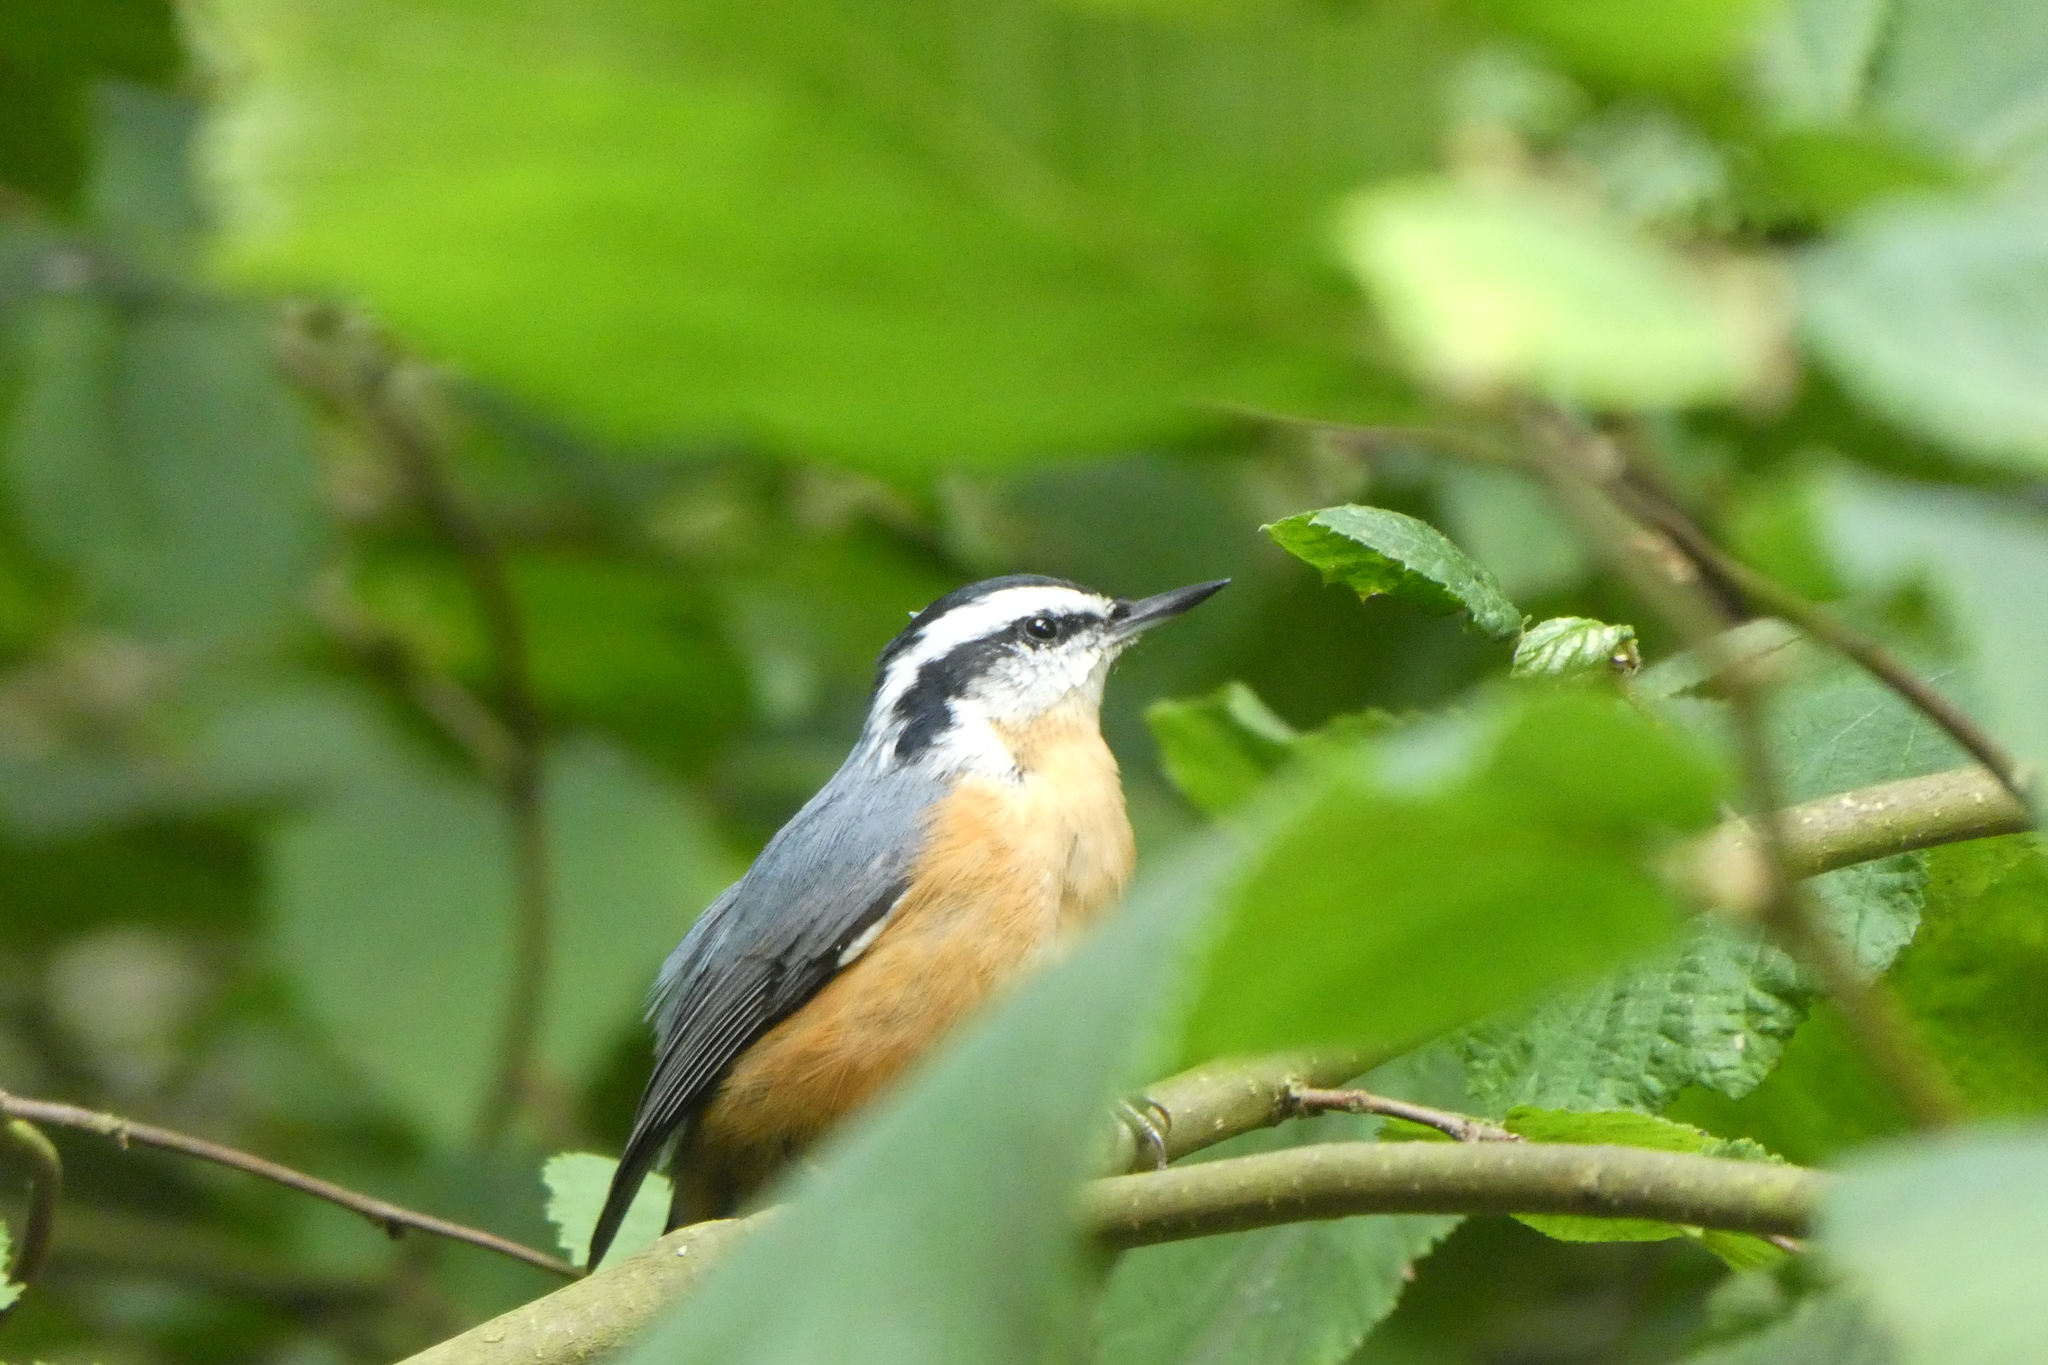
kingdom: Animalia
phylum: Chordata
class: Aves
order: Passeriformes
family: Sittidae
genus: Sitta
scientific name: Sitta canadensis
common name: Red-breasted nuthatch
